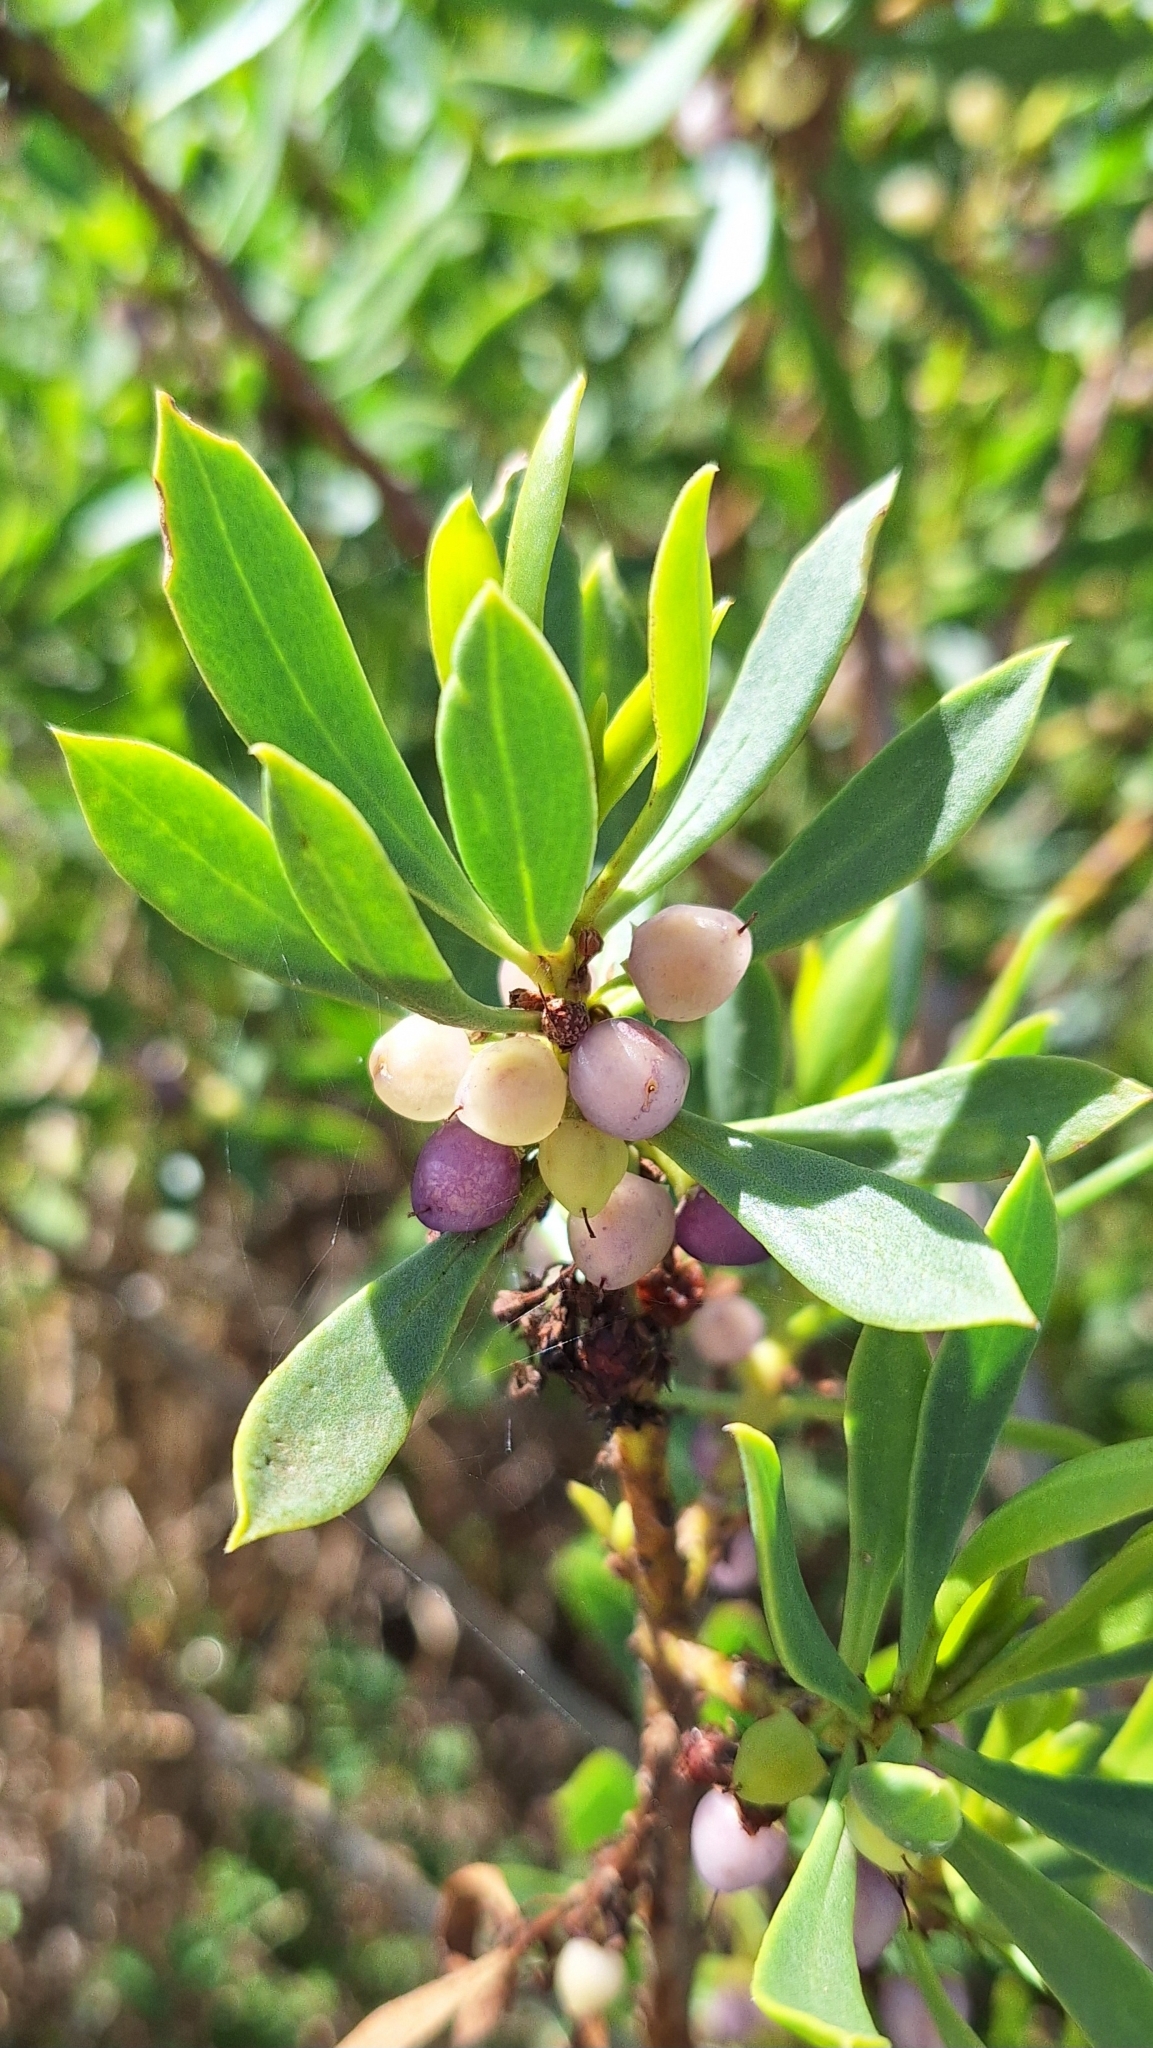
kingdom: Plantae
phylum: Tracheophyta
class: Magnoliopsida
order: Lamiales
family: Scrophulariaceae
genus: Myoporum
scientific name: Myoporum insulare
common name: Common boobialla
